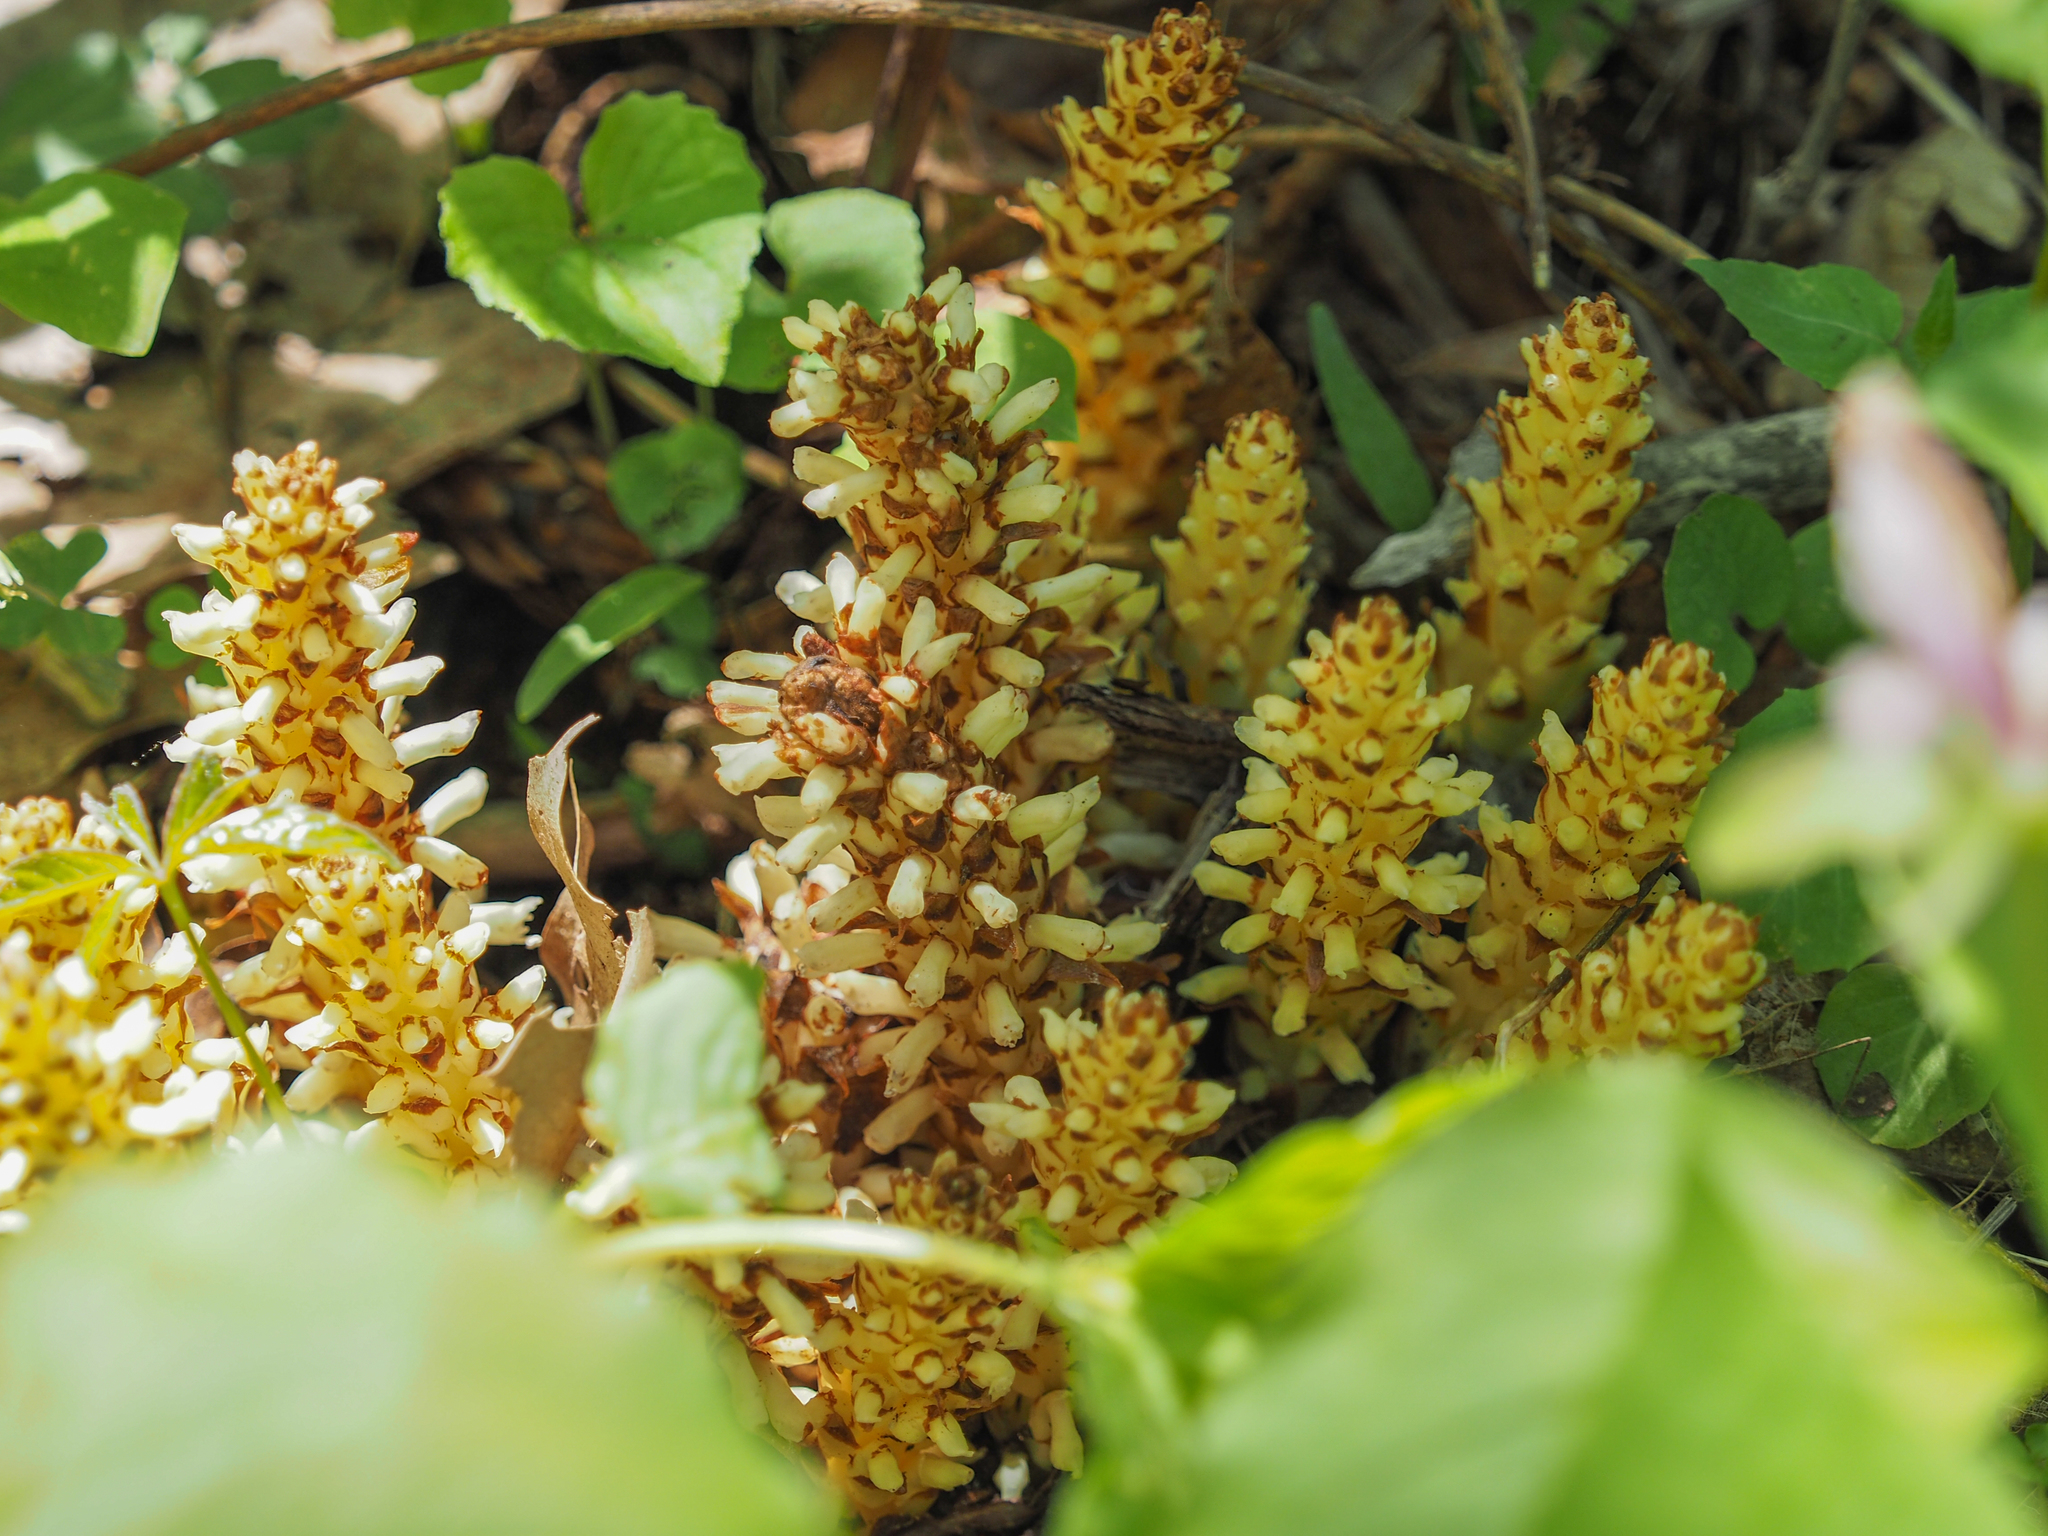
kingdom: Plantae
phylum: Tracheophyta
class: Magnoliopsida
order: Lamiales
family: Orobanchaceae
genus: Conopholis
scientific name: Conopholis americana
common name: American cancer-root
